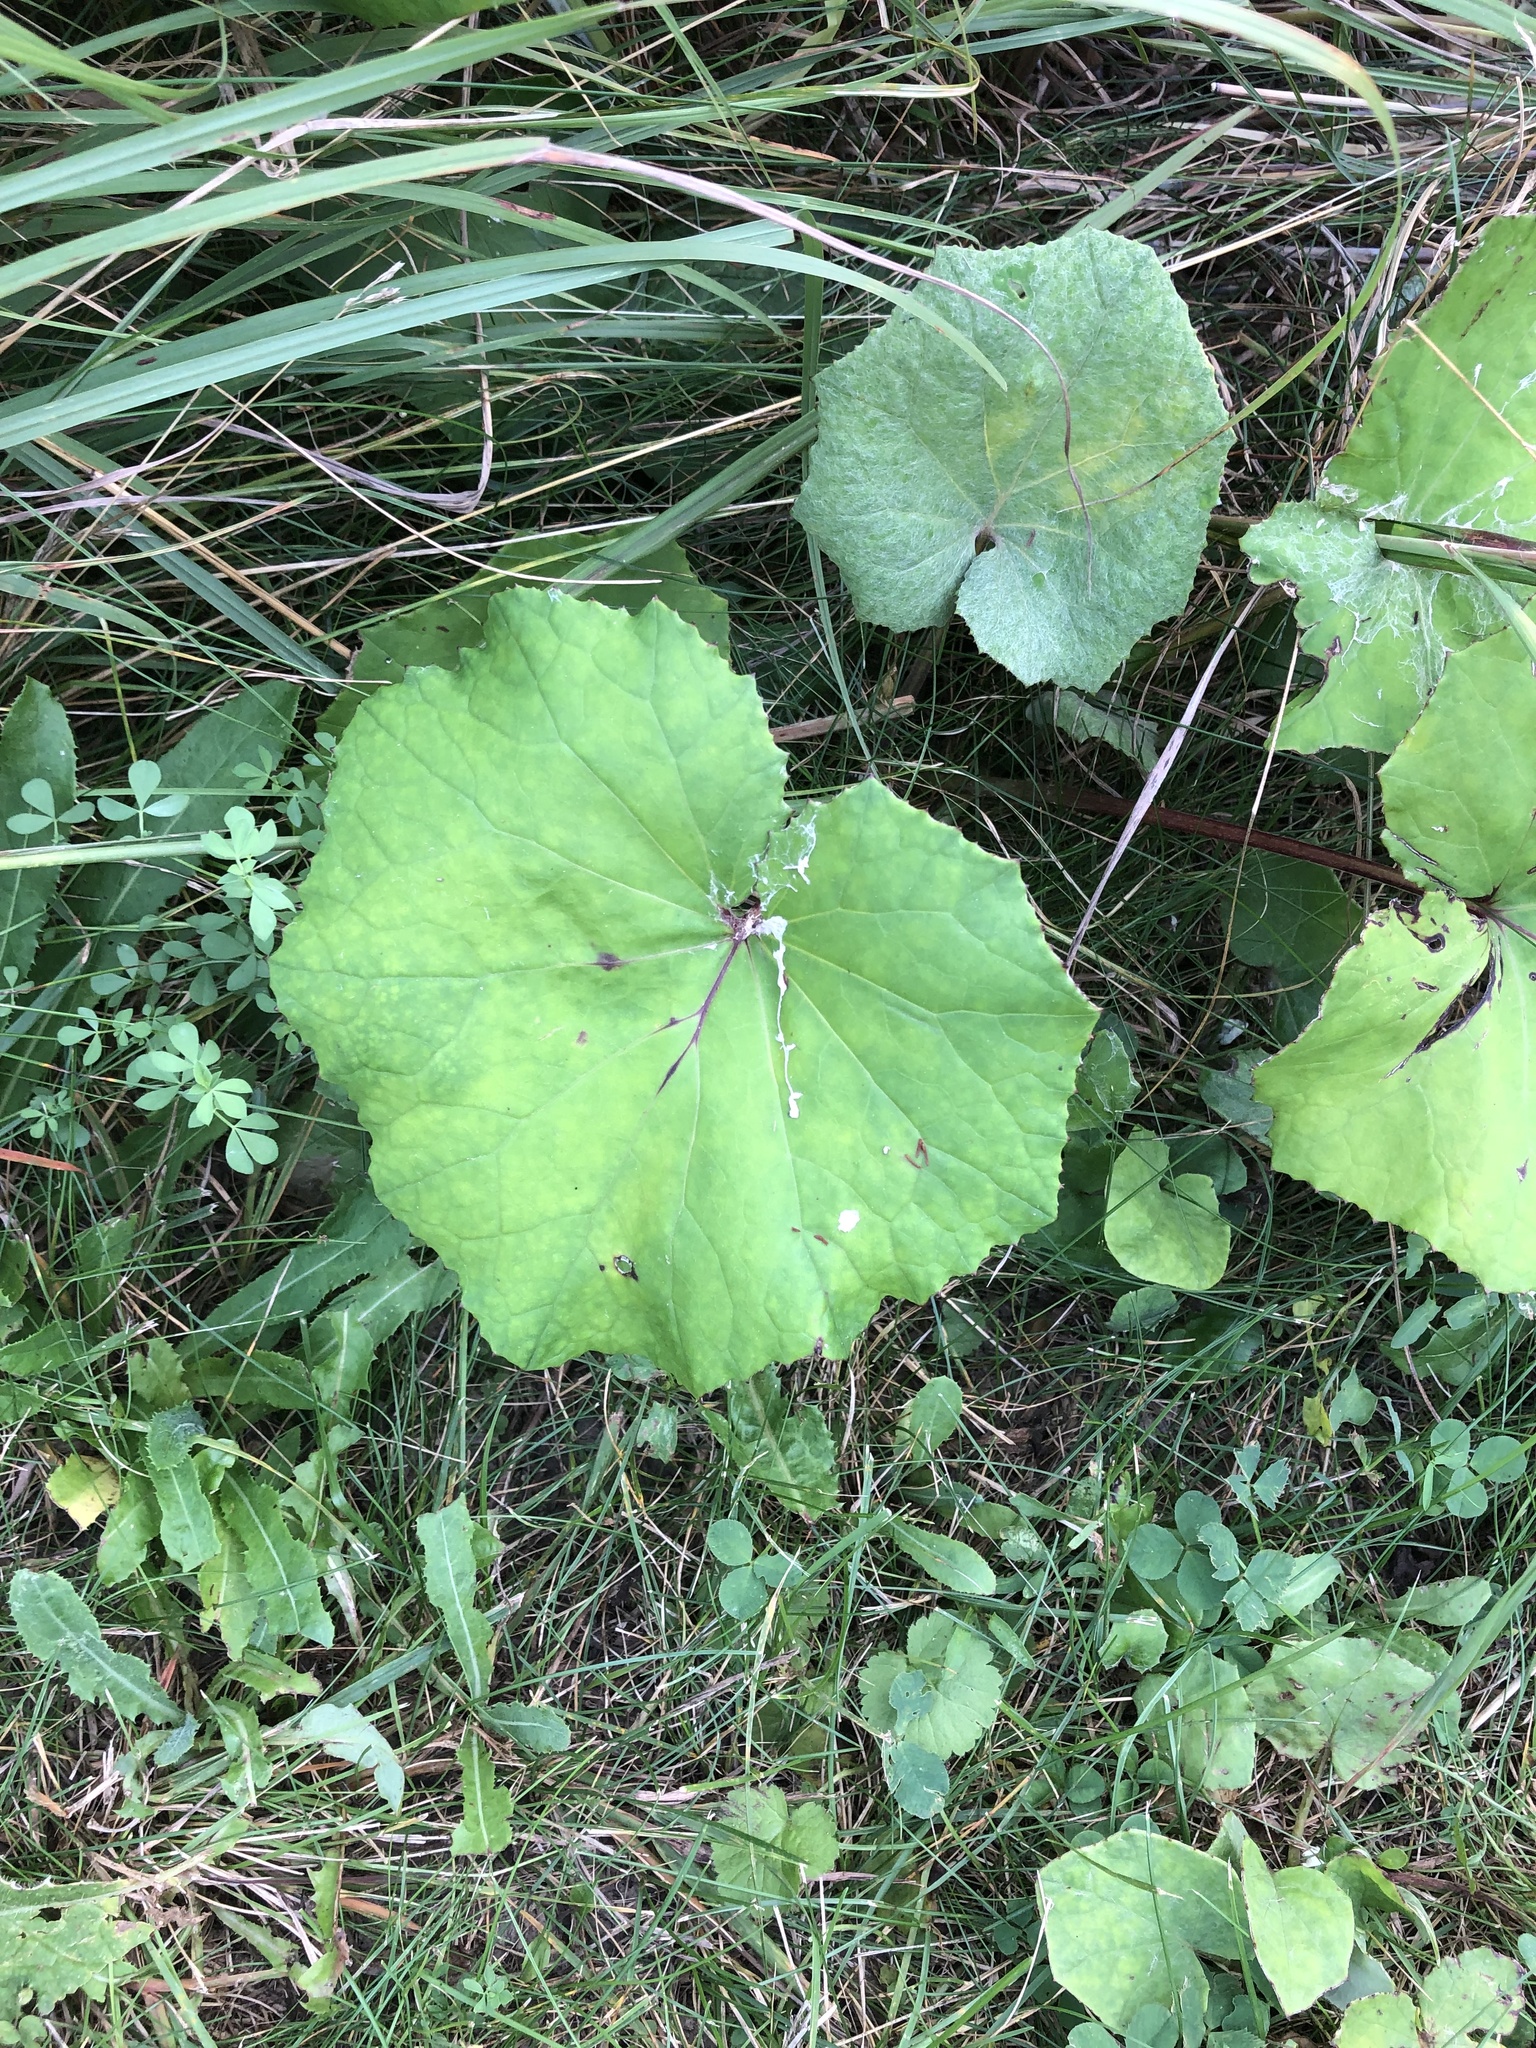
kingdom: Plantae
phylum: Tracheophyta
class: Magnoliopsida
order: Asterales
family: Asteraceae
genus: Tussilago
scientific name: Tussilago farfara
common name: Coltsfoot
